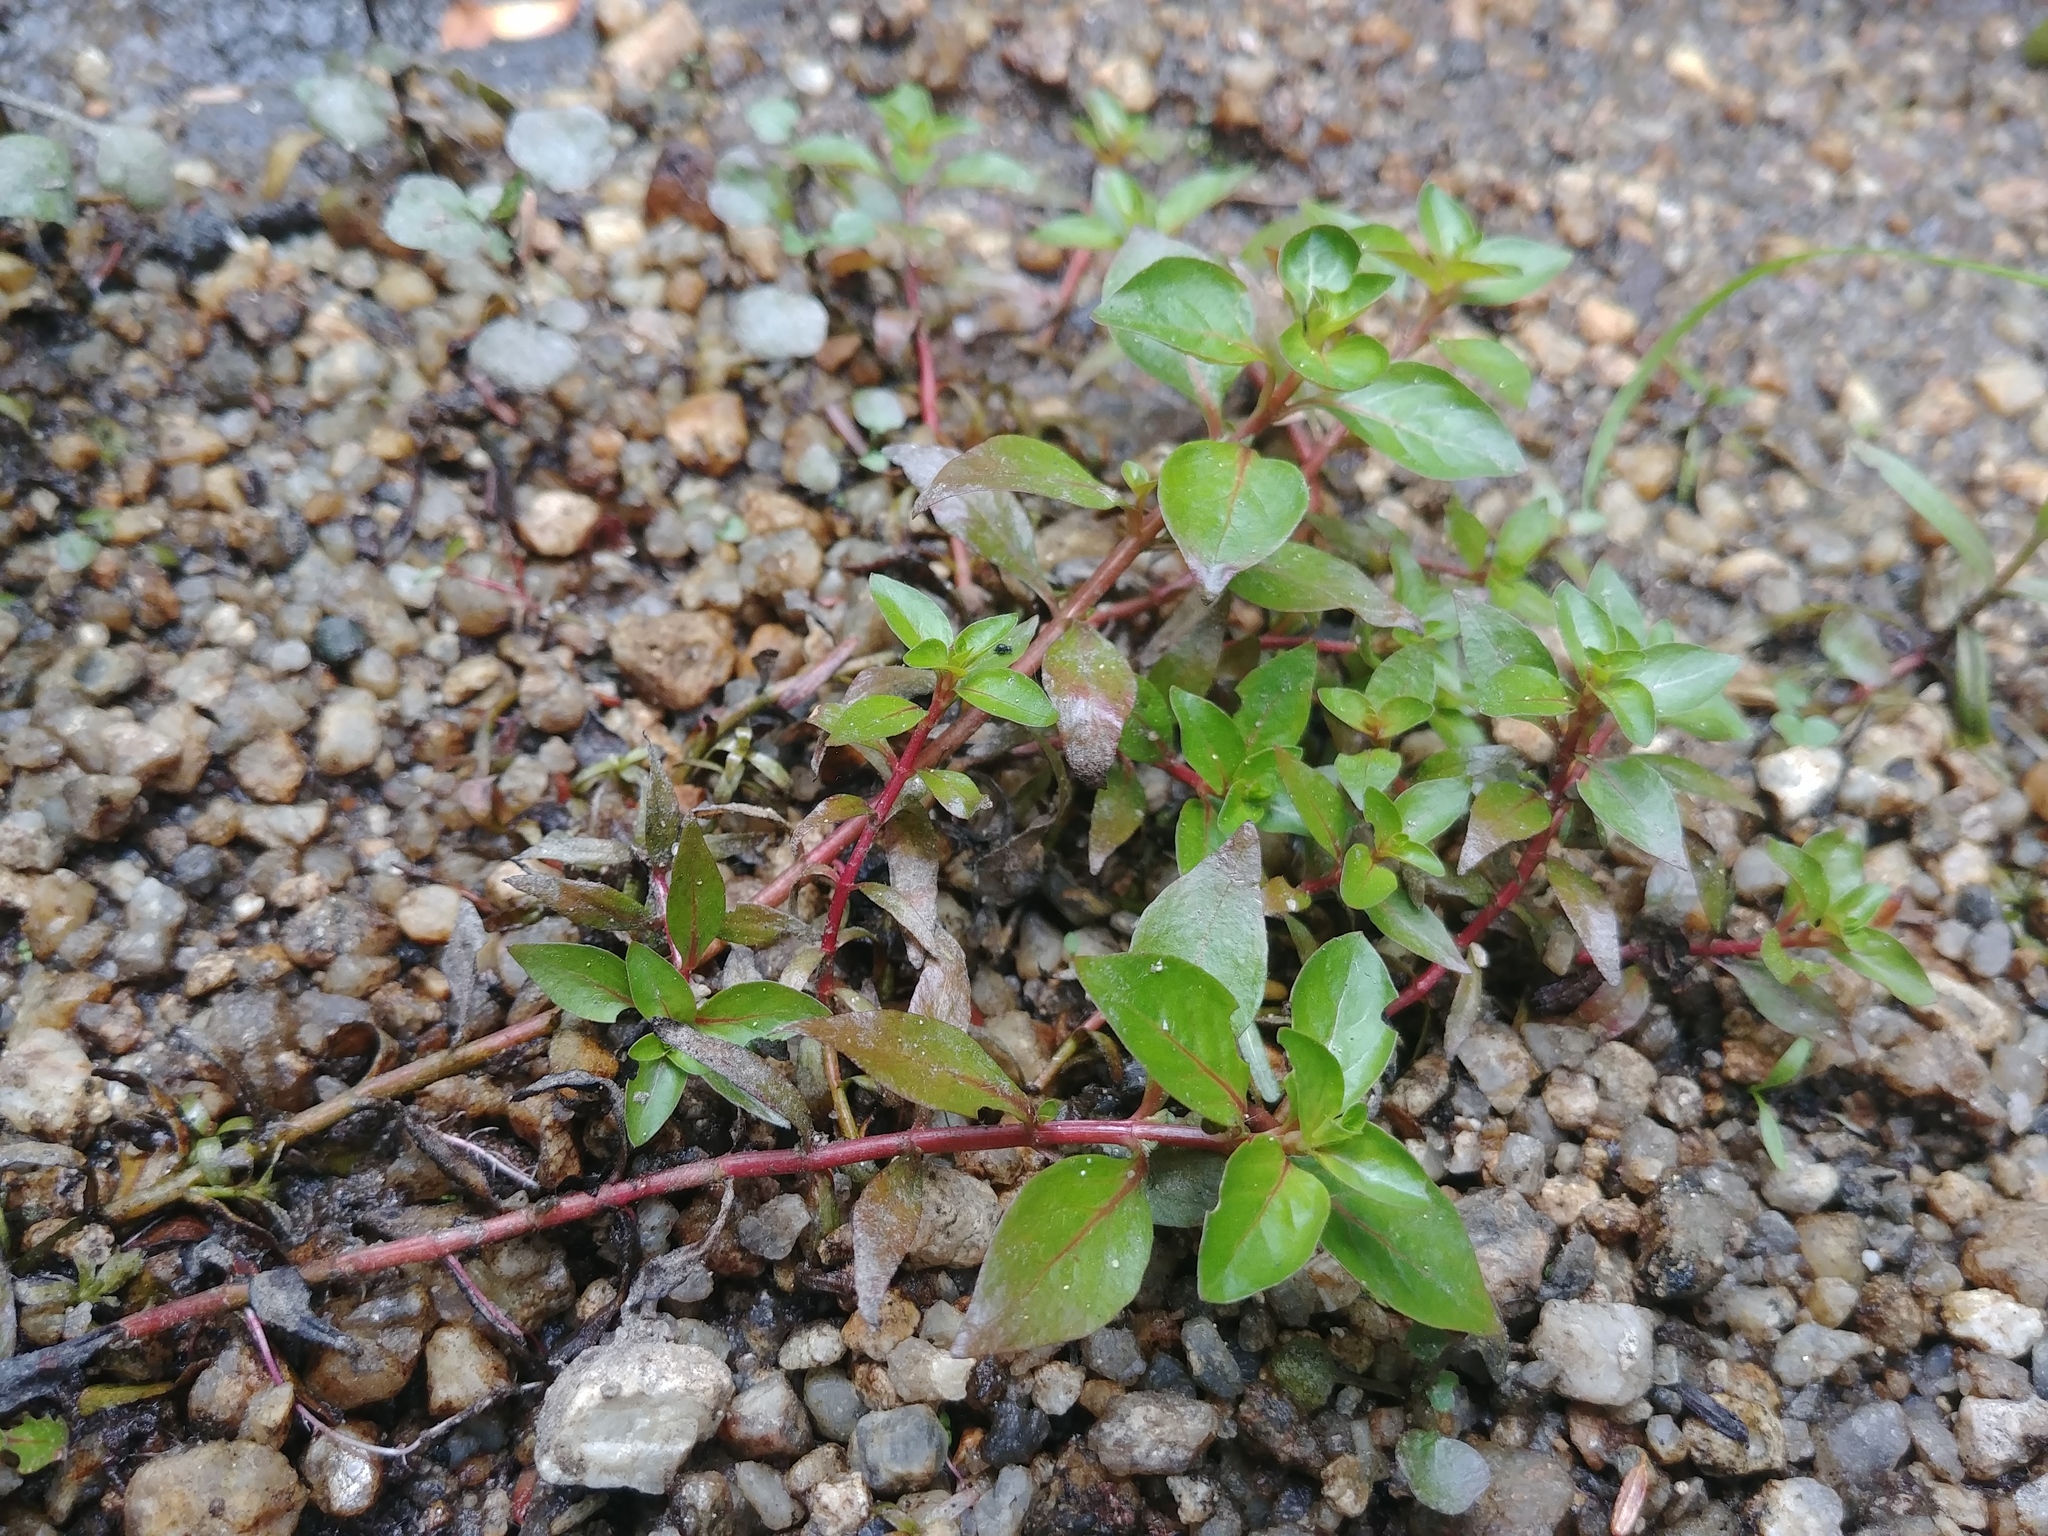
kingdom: Plantae
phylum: Tracheophyta
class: Magnoliopsida
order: Myrtales
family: Onagraceae
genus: Ludwigia
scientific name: Ludwigia palustris
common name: Hampshire-purslane
